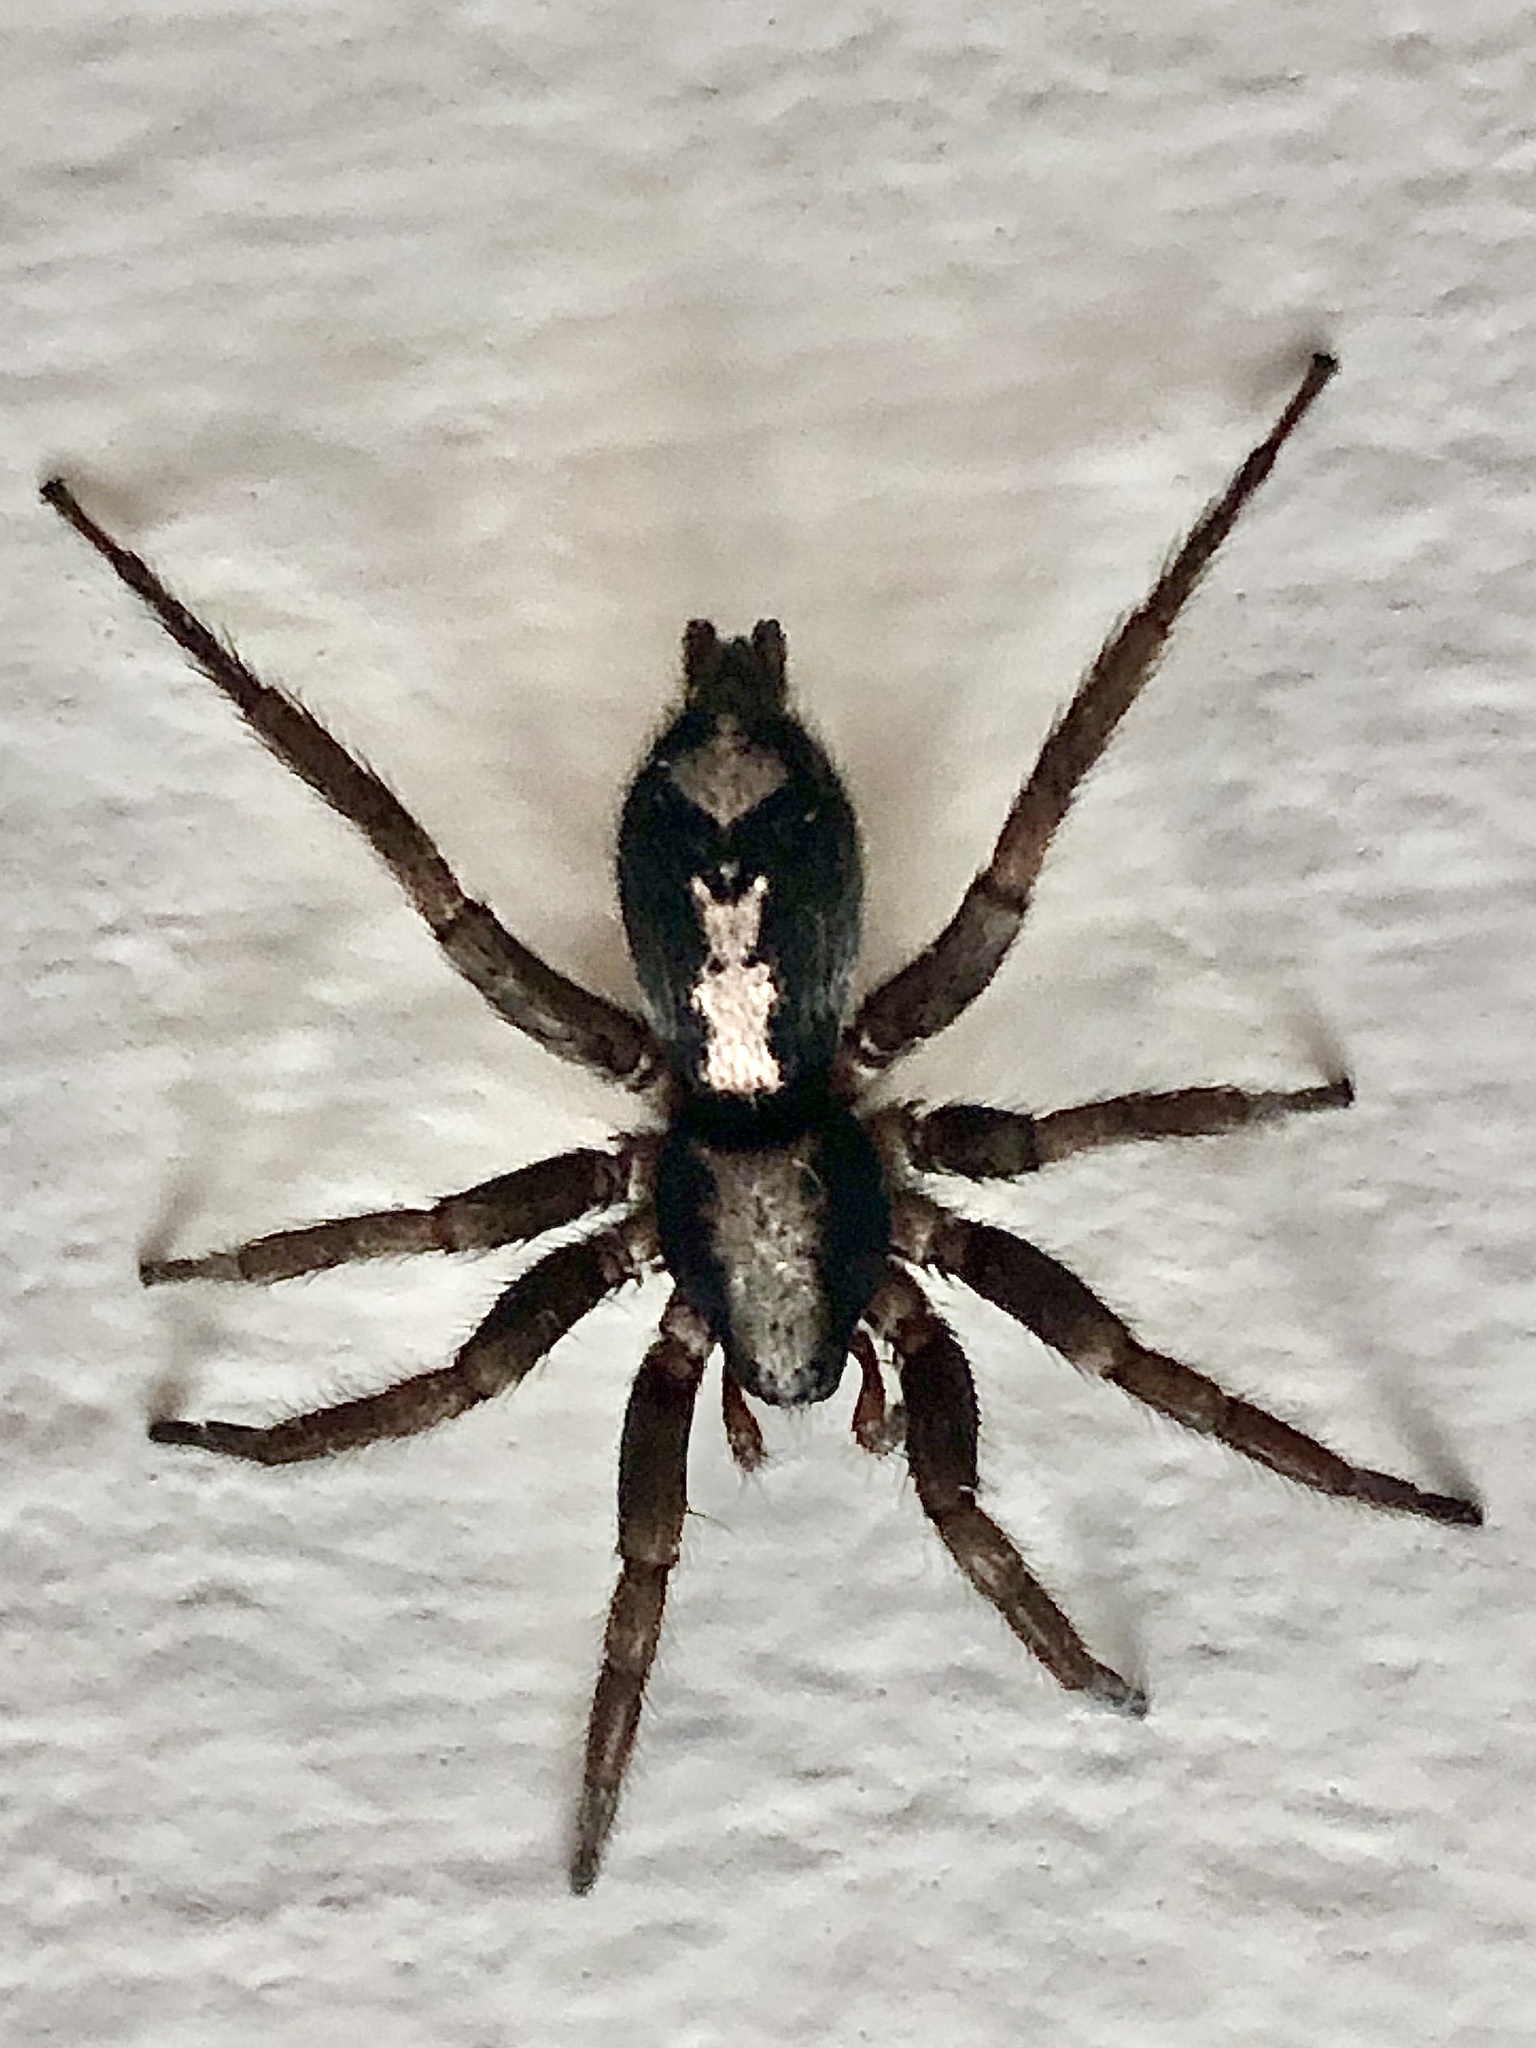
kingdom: Animalia
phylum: Arthropoda
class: Arachnida
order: Araneae
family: Gnaphosidae
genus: Herpyllus
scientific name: Herpyllus ecclesiasticus
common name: Eastern parson spider
